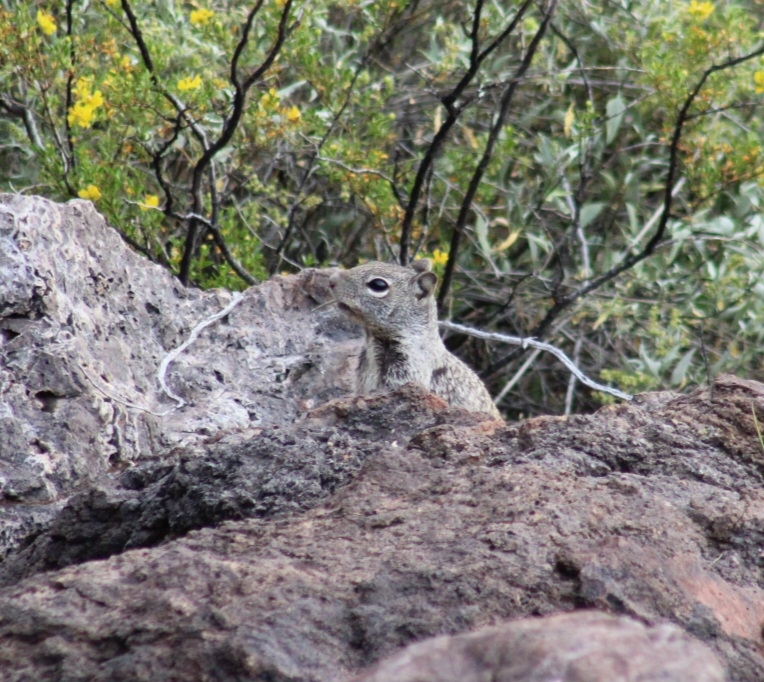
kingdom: Animalia
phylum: Chordata
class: Mammalia
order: Rodentia
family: Sciuridae
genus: Otospermophilus
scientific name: Otospermophilus variegatus
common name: Rock squirrel
